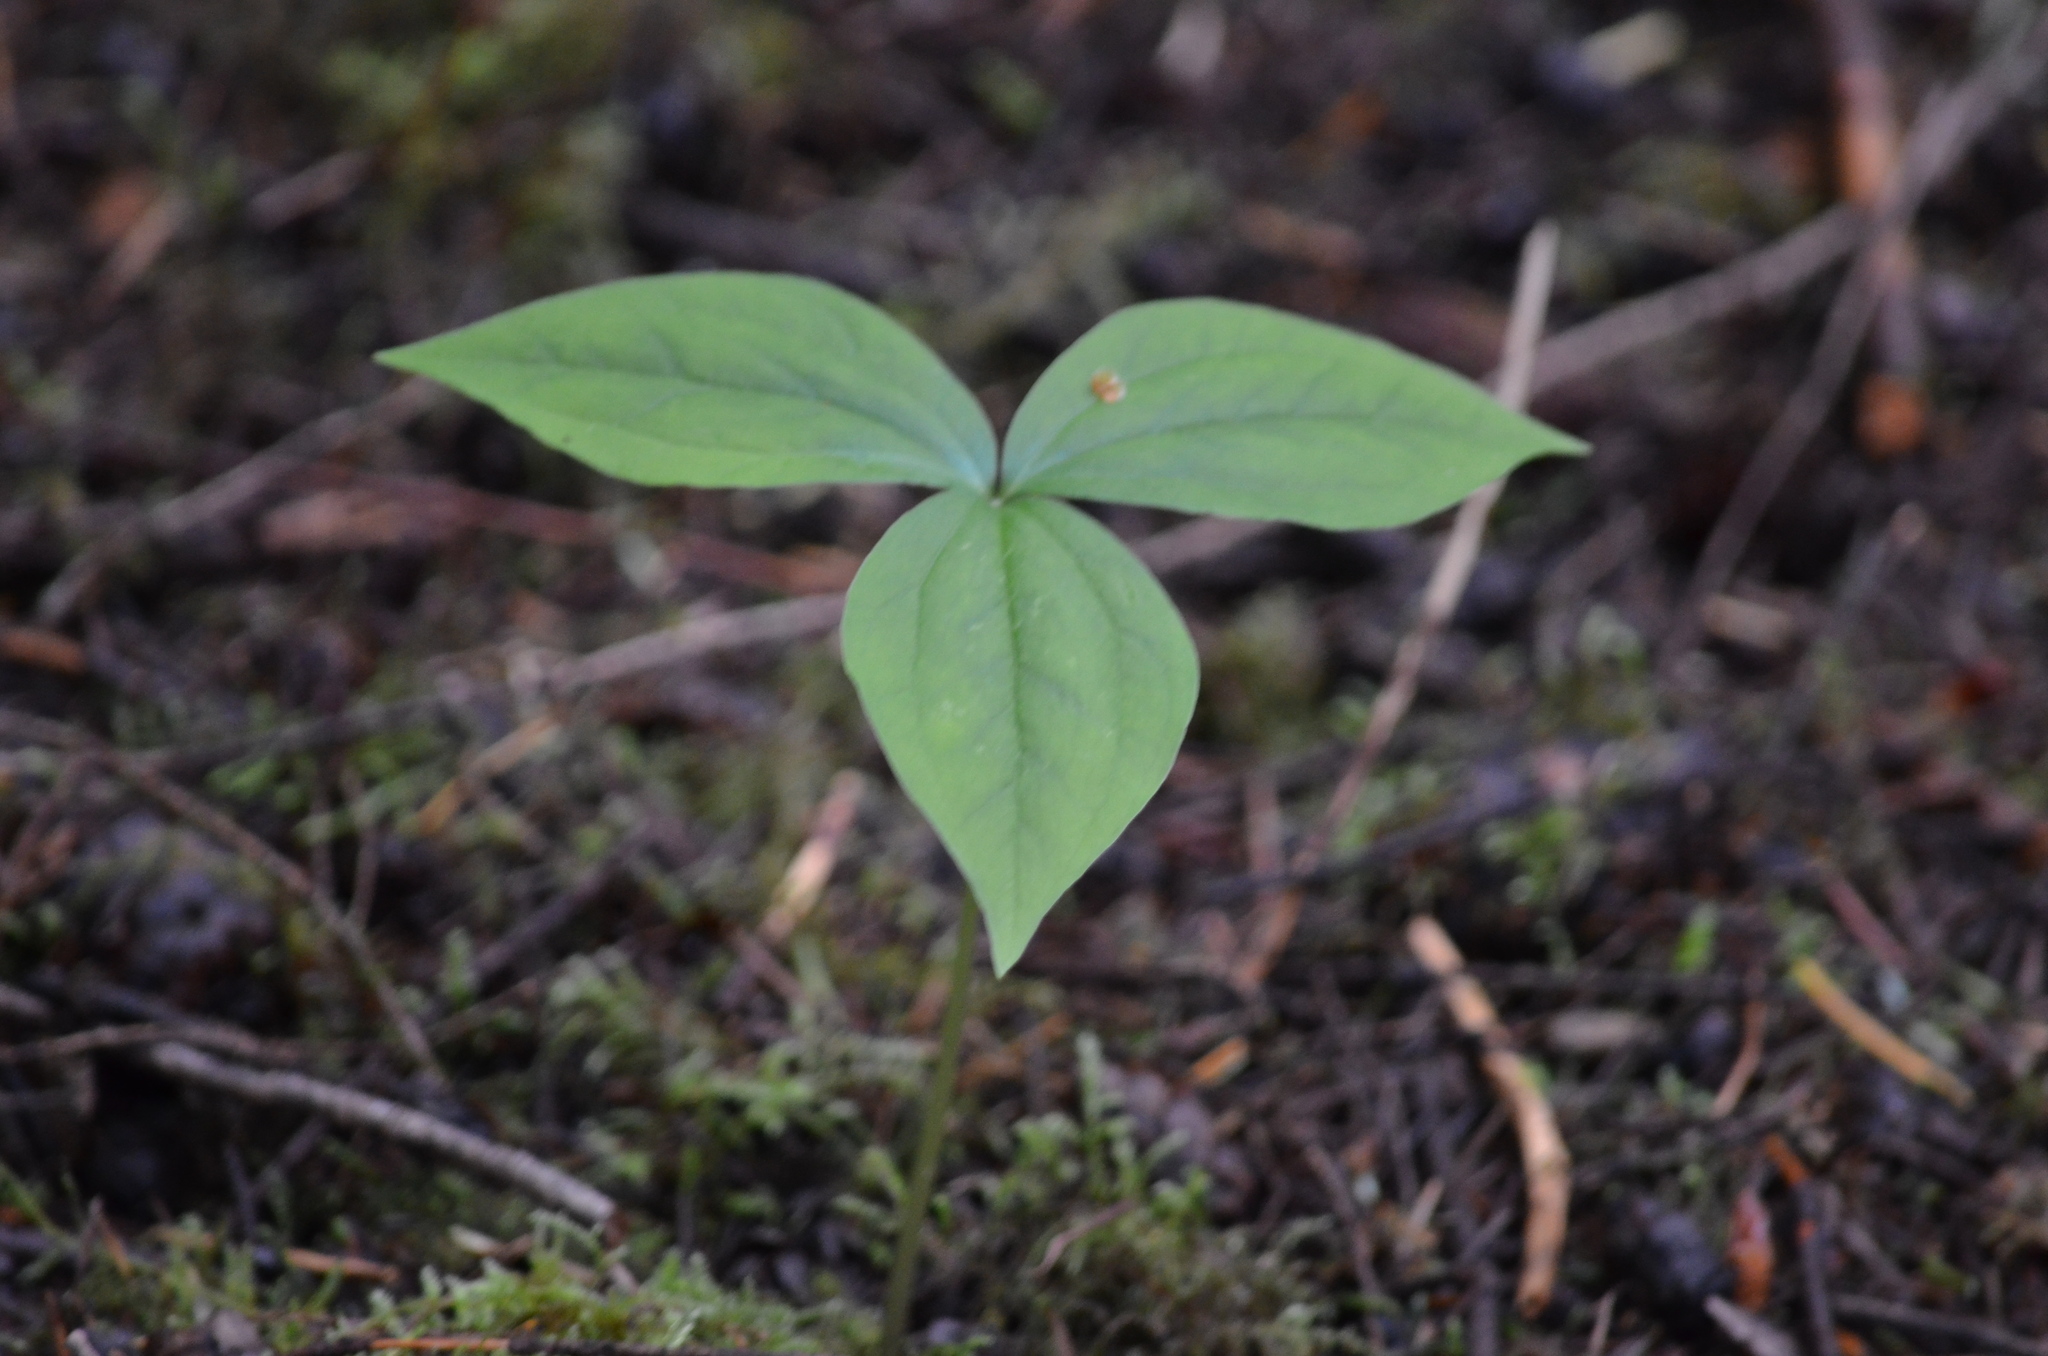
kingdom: Plantae
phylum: Tracheophyta
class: Liliopsida
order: Liliales
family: Melanthiaceae
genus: Trillium
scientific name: Trillium ovatum
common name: Pacific trillium
